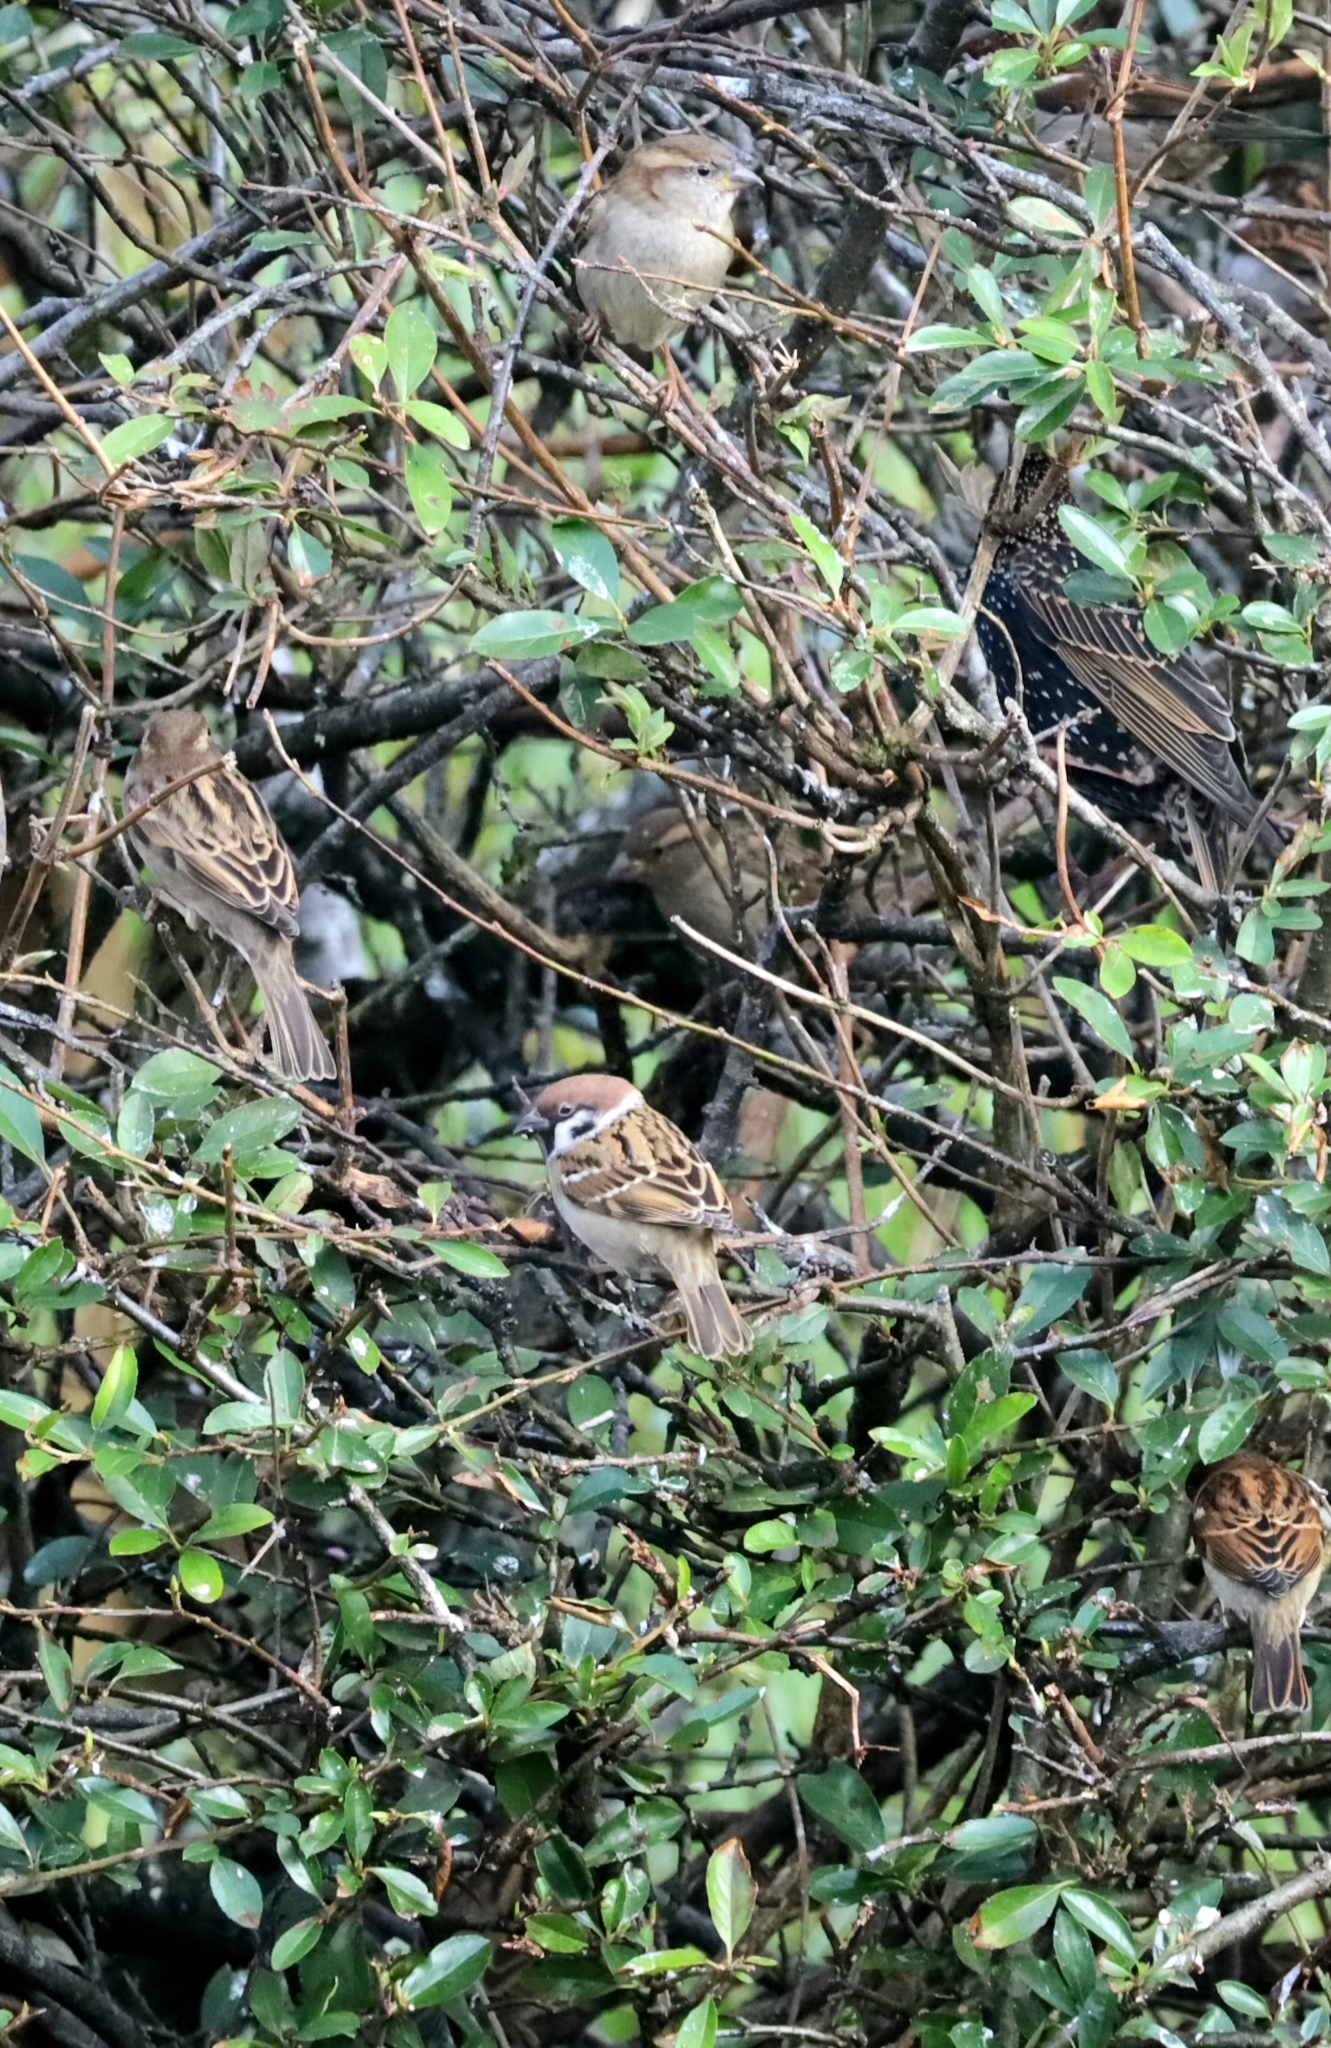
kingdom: Animalia
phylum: Chordata
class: Aves
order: Passeriformes
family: Passeridae
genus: Passer
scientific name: Passer montanus
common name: Eurasian tree sparrow
